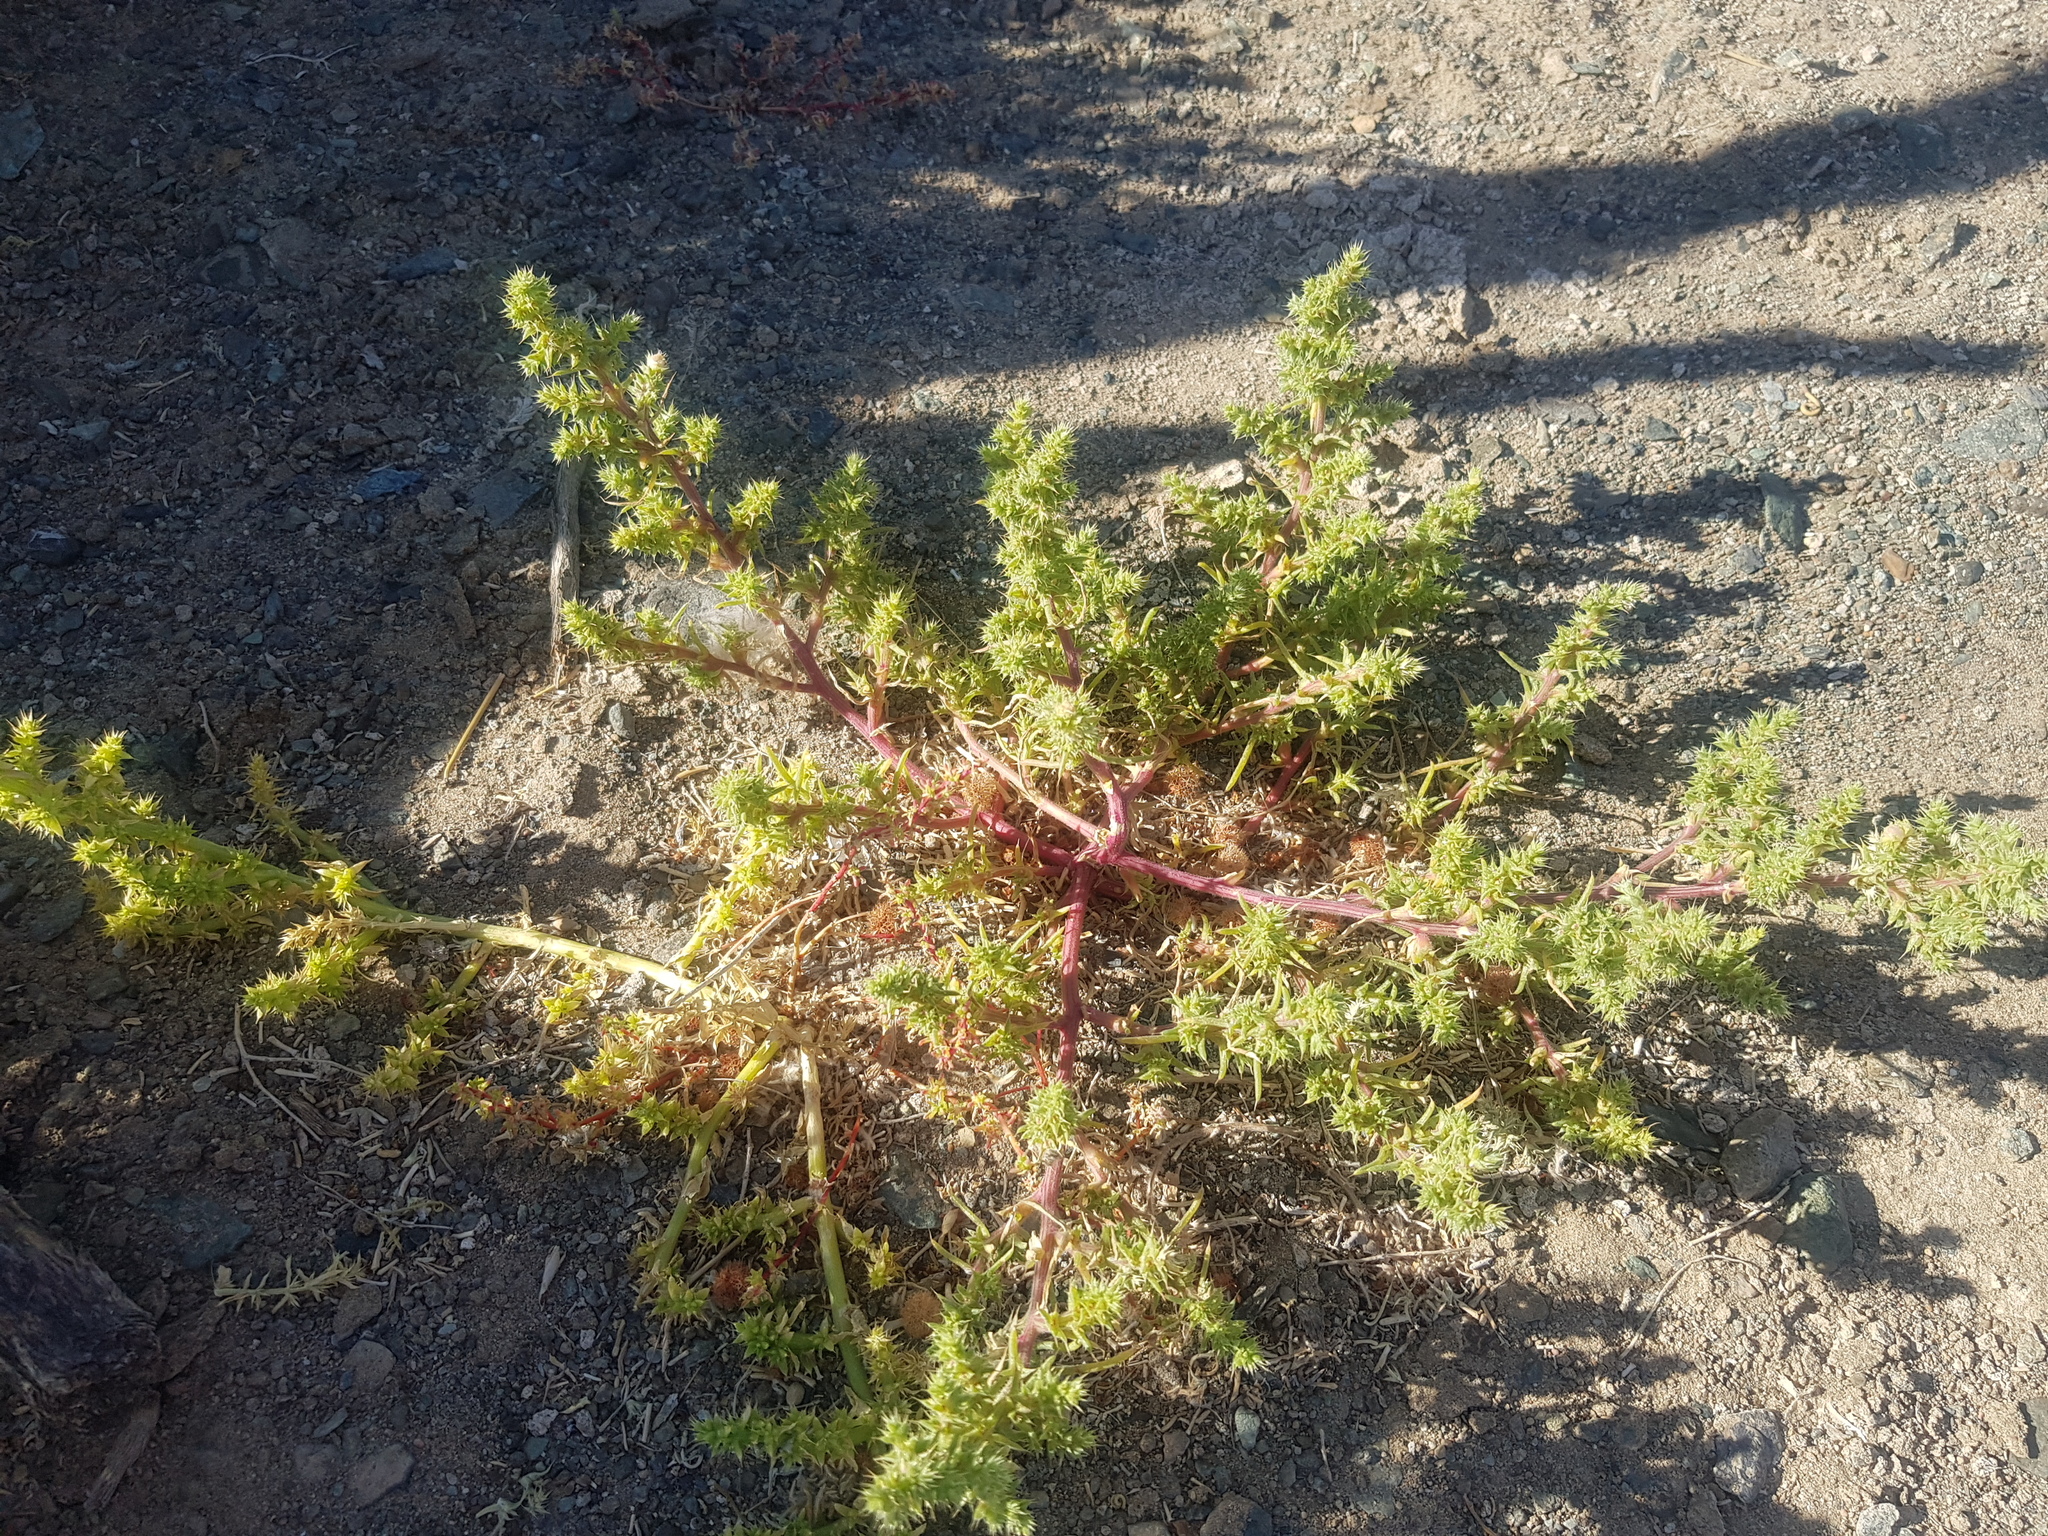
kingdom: Plantae
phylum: Tracheophyta
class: Magnoliopsida
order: Caryophyllales
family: Amaranthaceae
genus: Salsola
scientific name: Salsola tragus
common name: Prickly russian thistle
